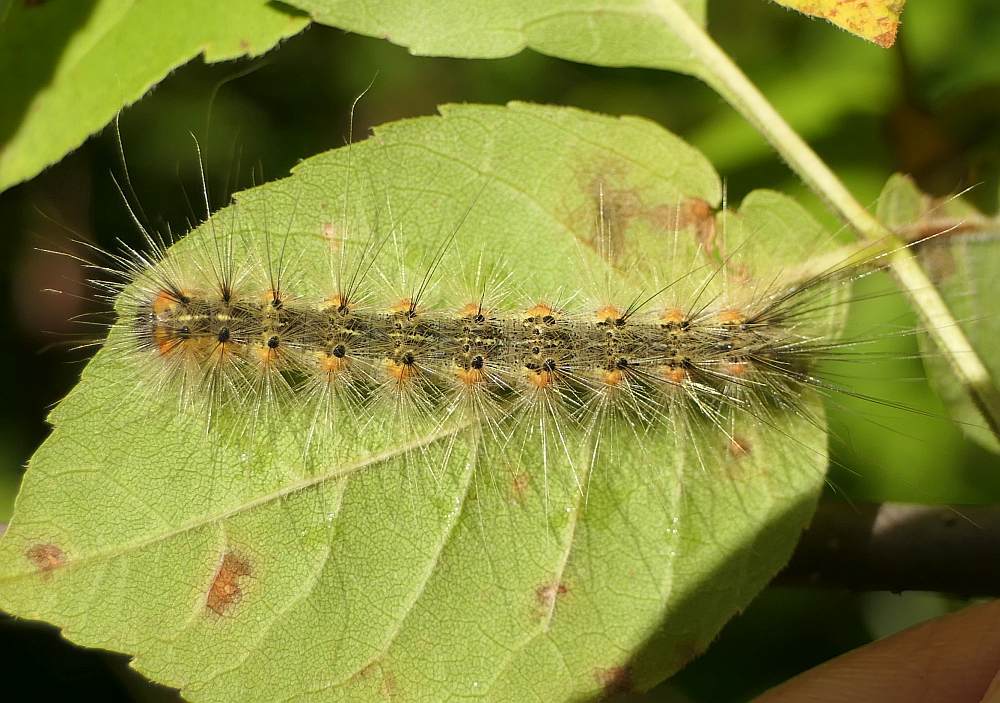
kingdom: Animalia
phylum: Arthropoda
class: Insecta
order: Lepidoptera
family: Erebidae
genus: Hyphantria
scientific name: Hyphantria cunea
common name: American white moth
